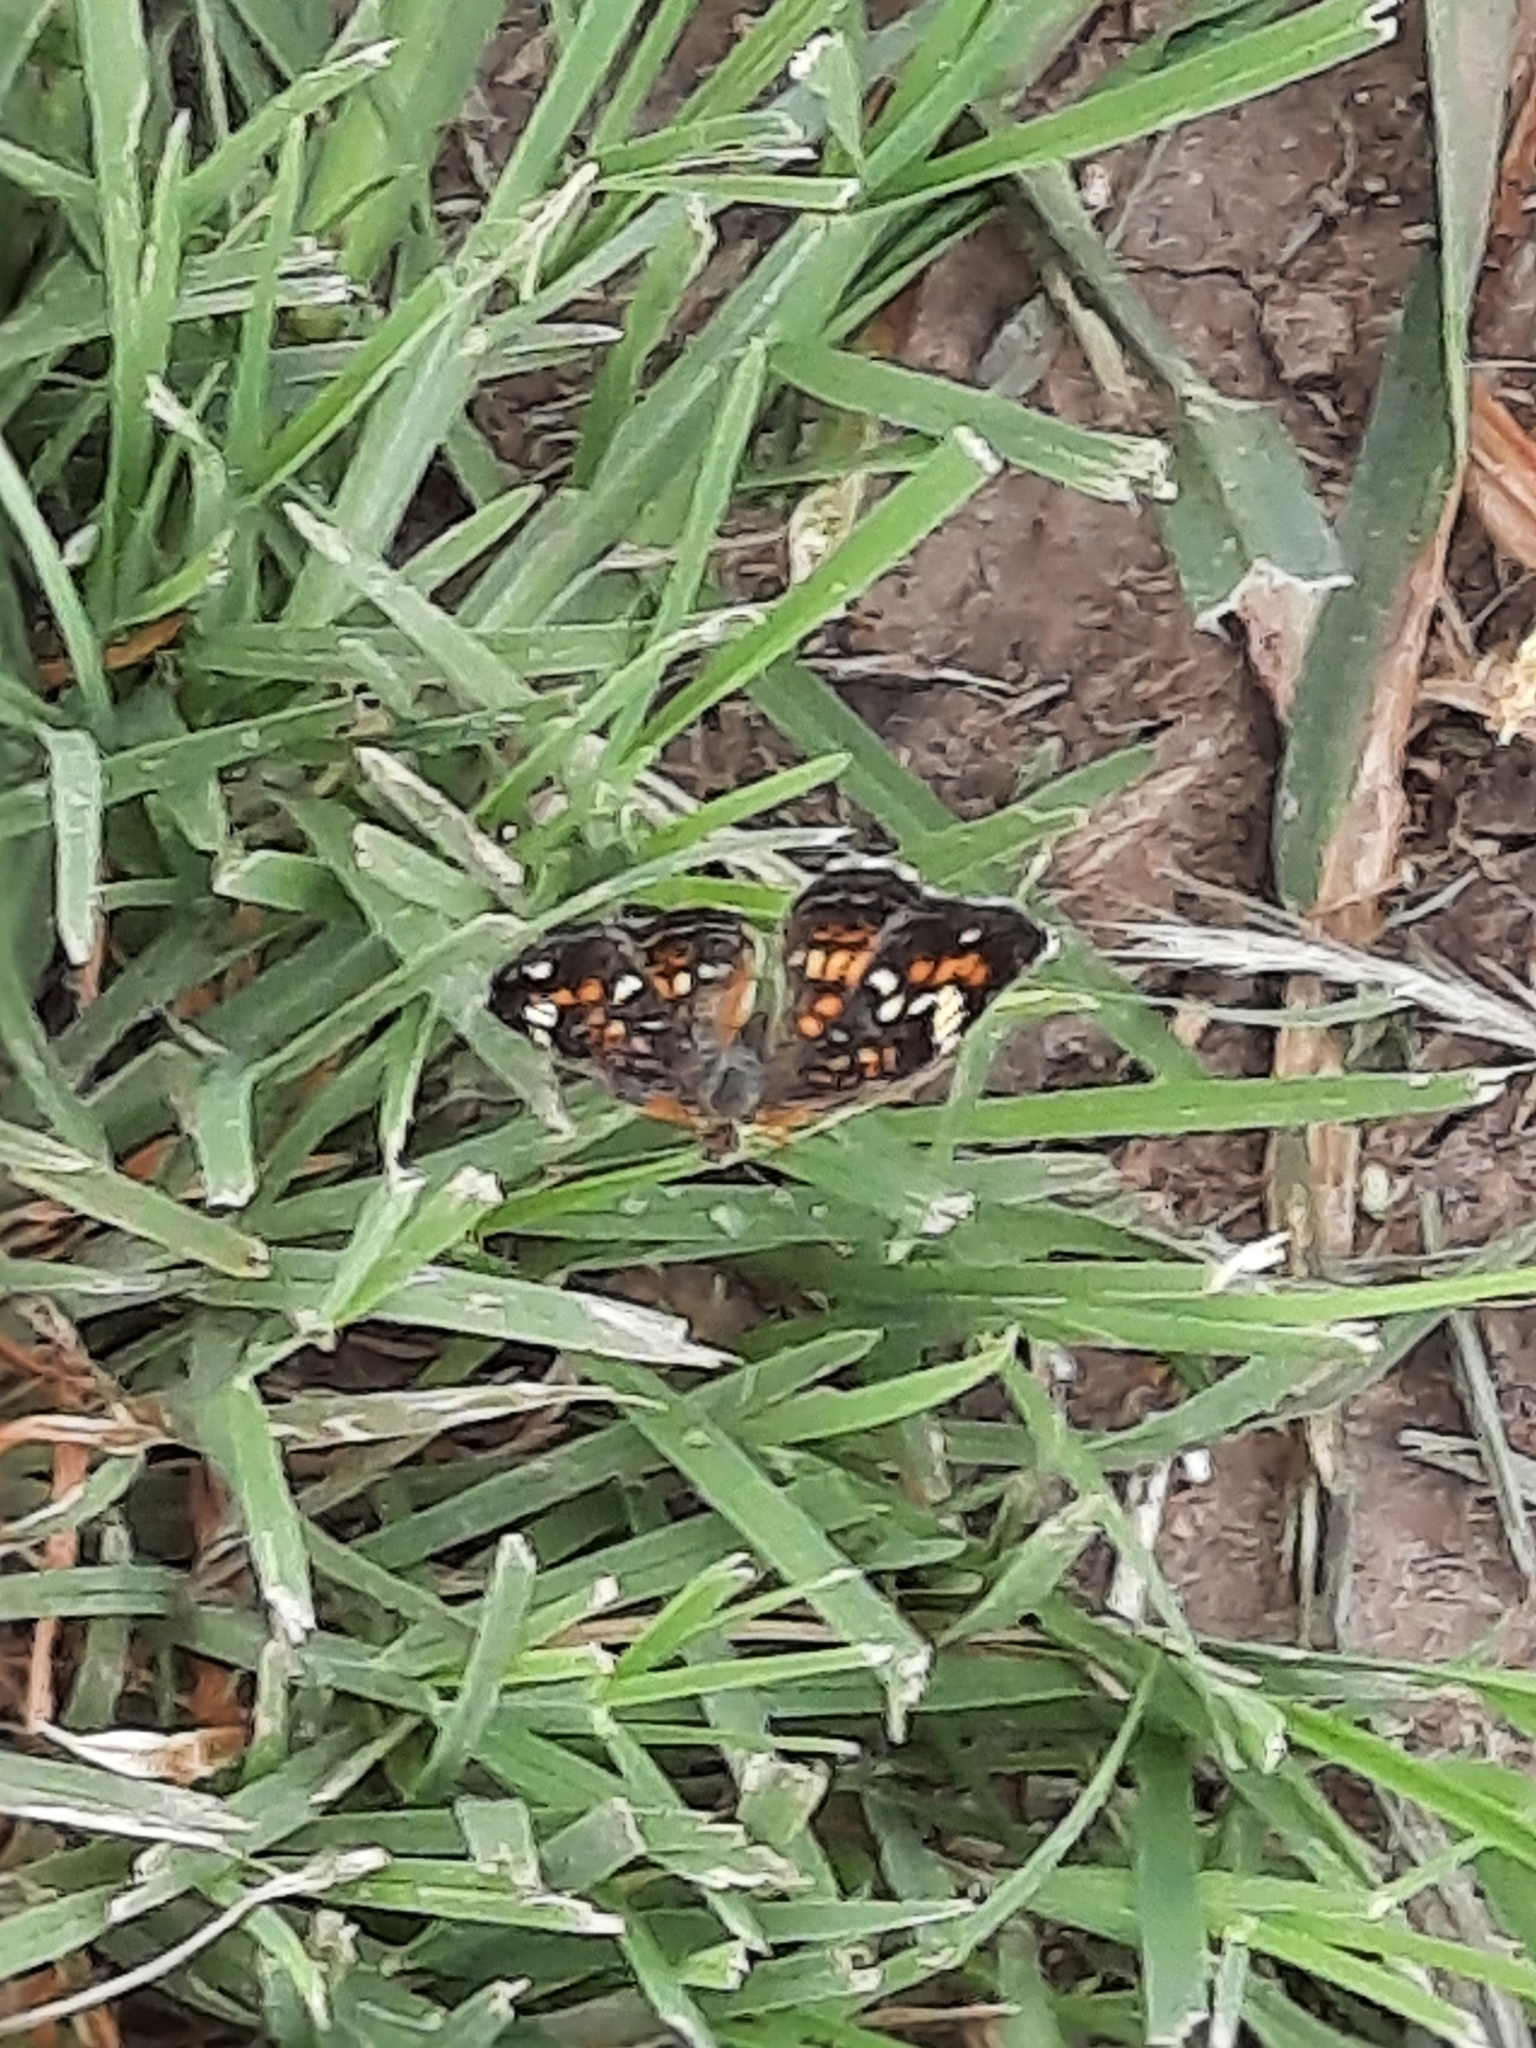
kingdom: Animalia
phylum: Arthropoda
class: Insecta
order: Lepidoptera
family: Nymphalidae
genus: Phyciodes
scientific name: Phyciodes phaon
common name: Phaon crescent
